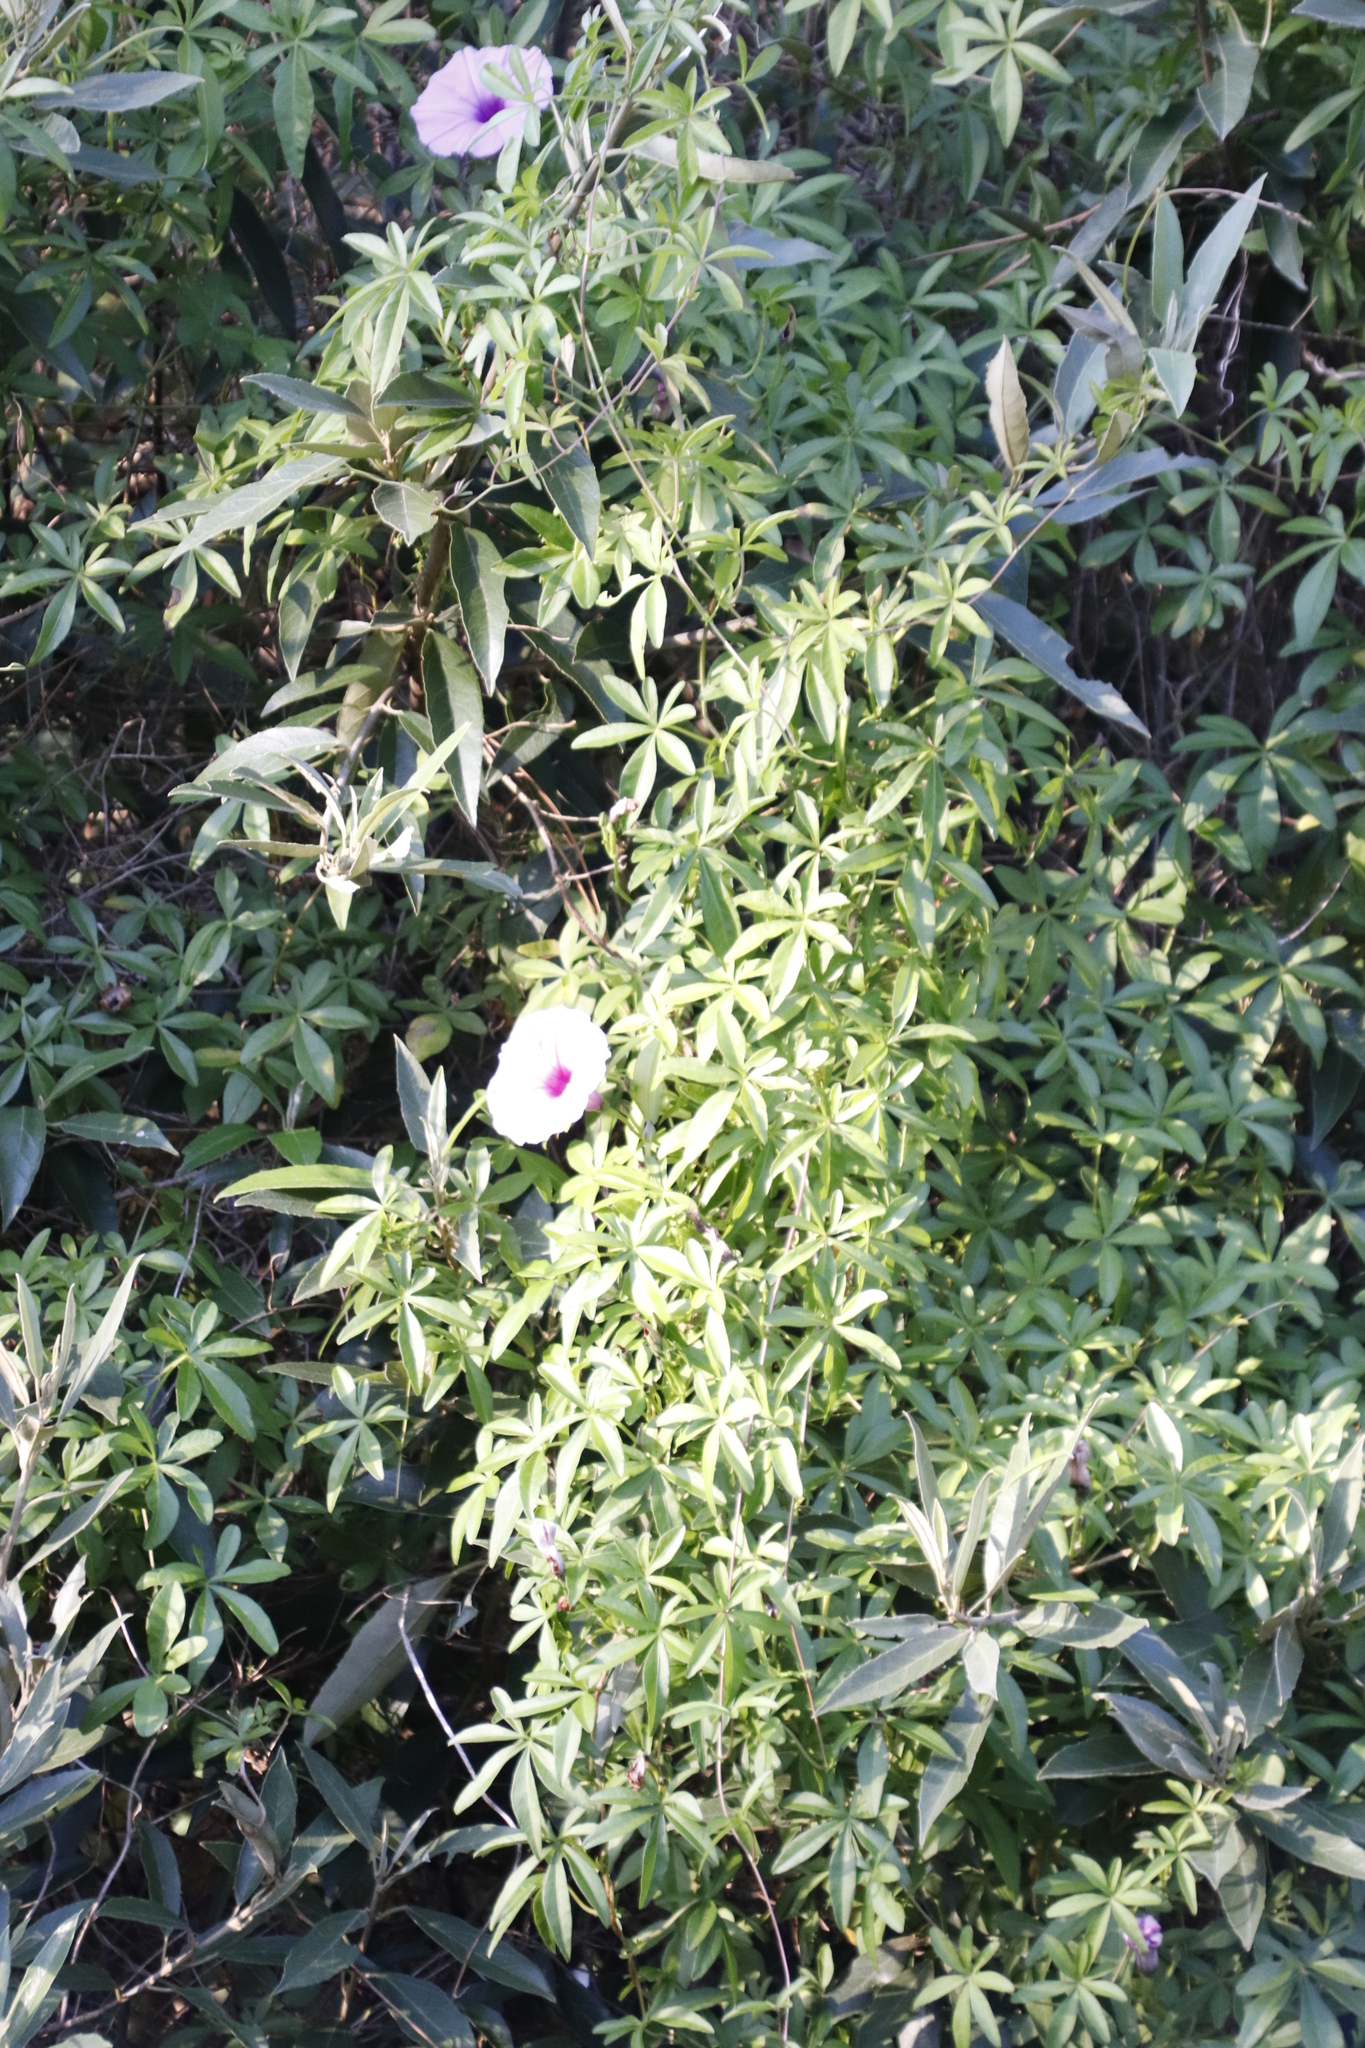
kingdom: Plantae
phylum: Tracheophyta
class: Magnoliopsida
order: Solanales
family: Convolvulaceae
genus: Ipomoea
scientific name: Ipomoea cairica
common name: Mile a minute vine
